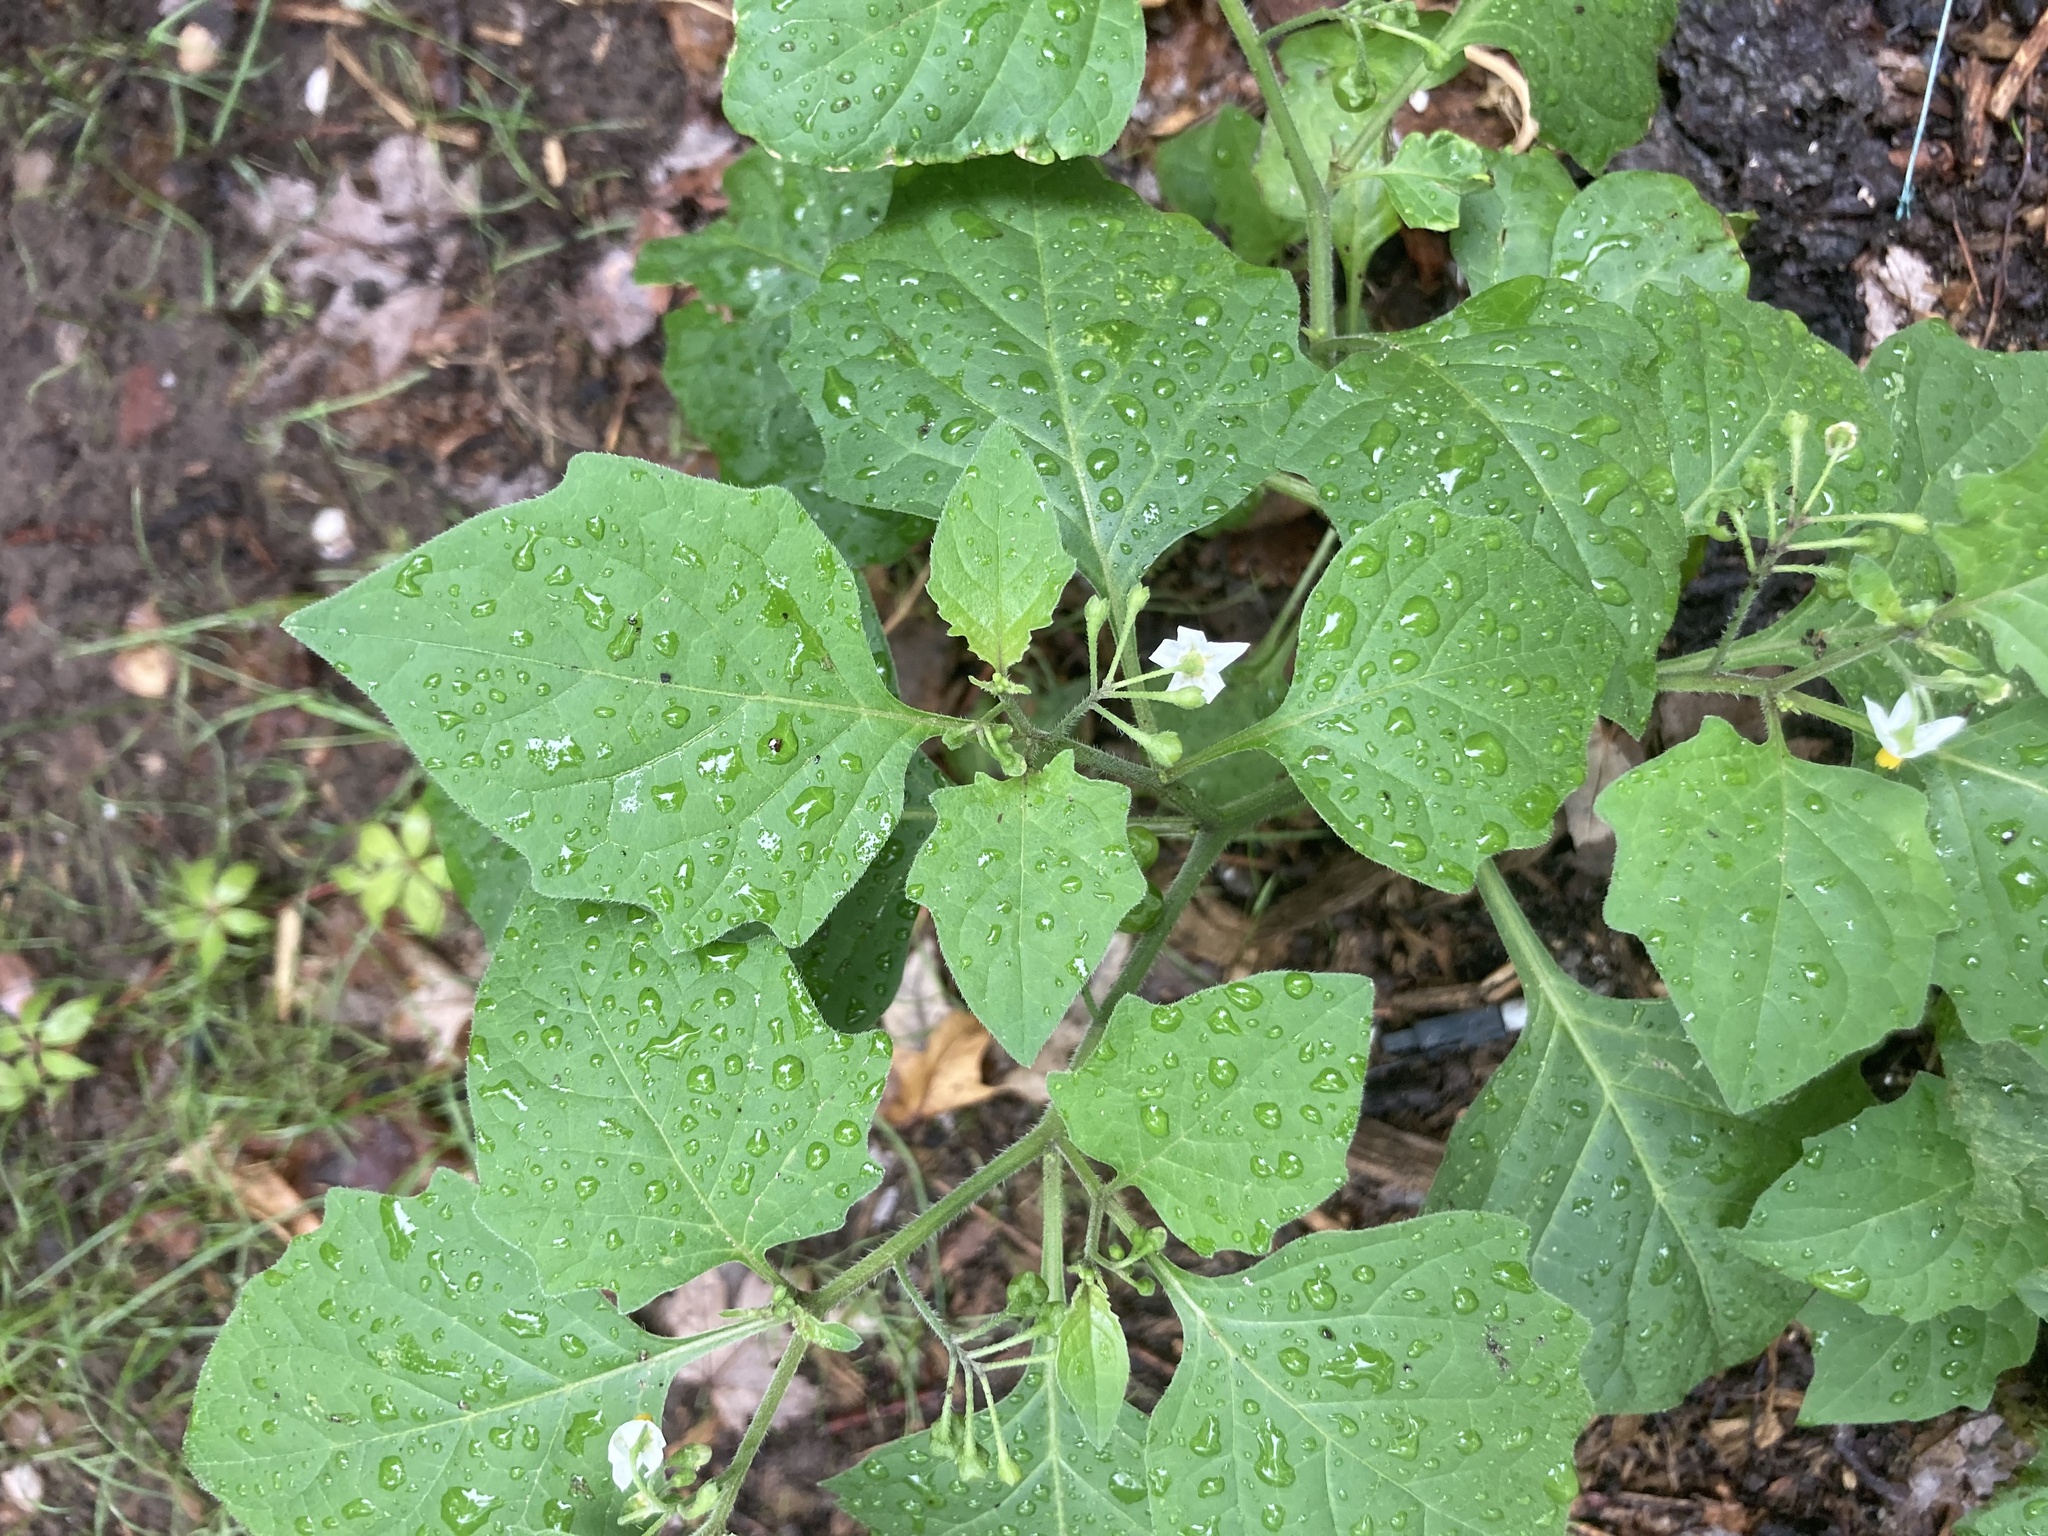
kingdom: Plantae
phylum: Tracheophyta
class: Magnoliopsida
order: Solanales
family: Solanaceae
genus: Solanum
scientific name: Solanum nigrum
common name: Black nightshade
